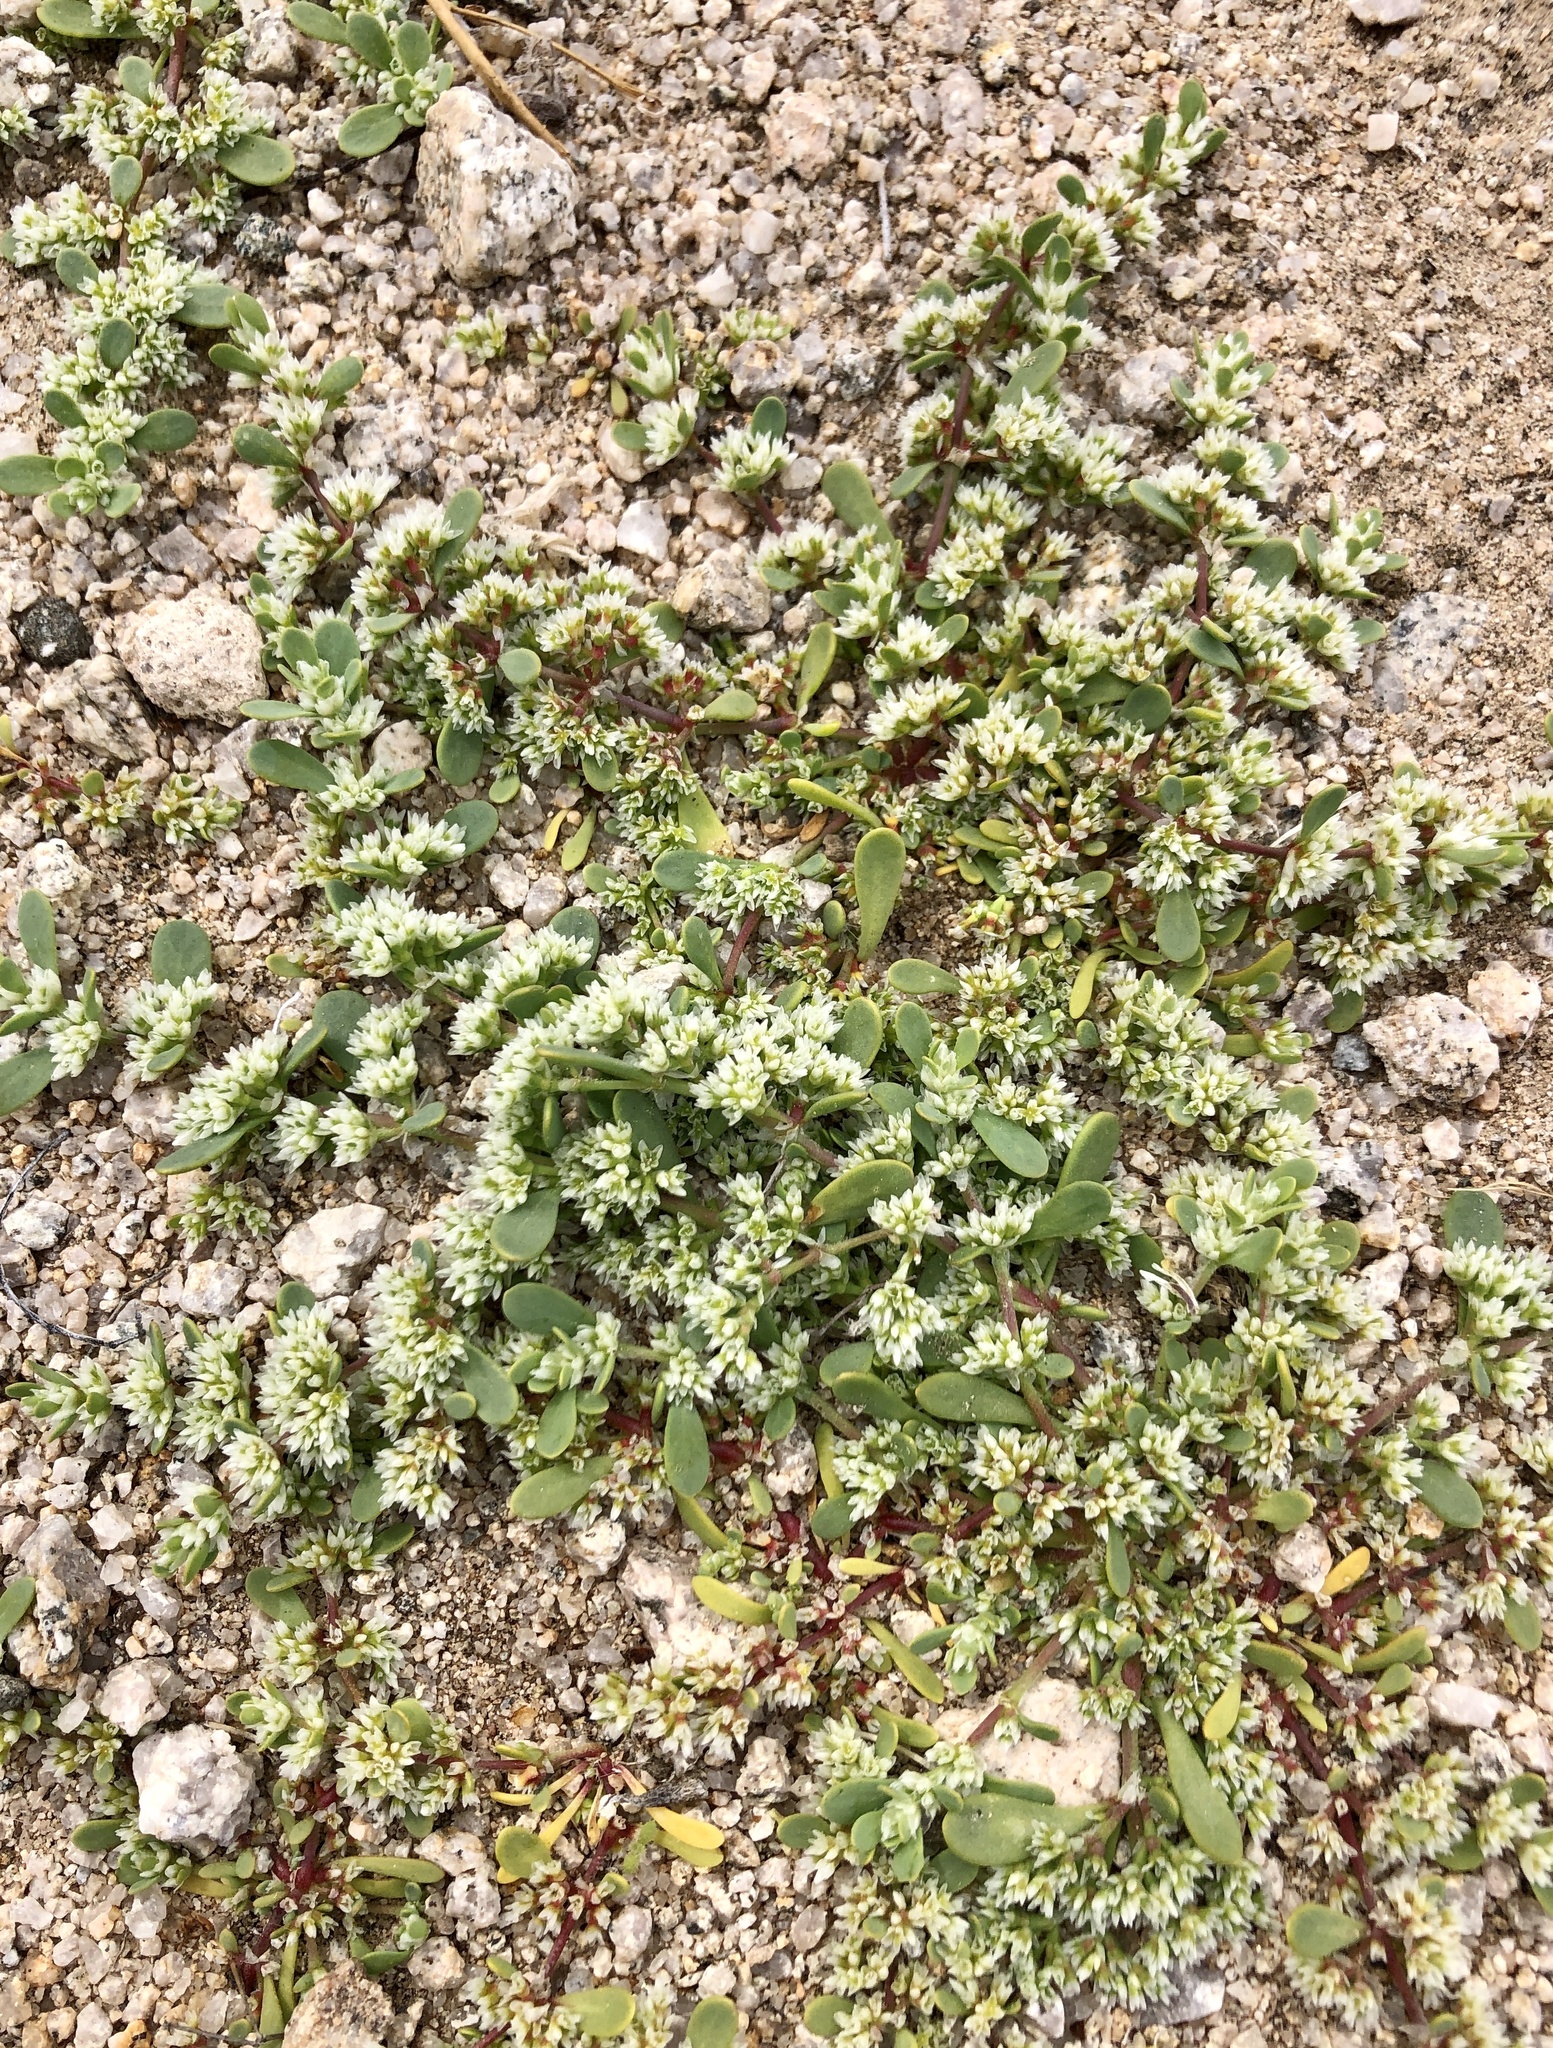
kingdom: Plantae
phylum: Tracheophyta
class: Magnoliopsida
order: Caryophyllales
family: Caryophyllaceae
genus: Achyronychia
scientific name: Achyronychia cooperi
